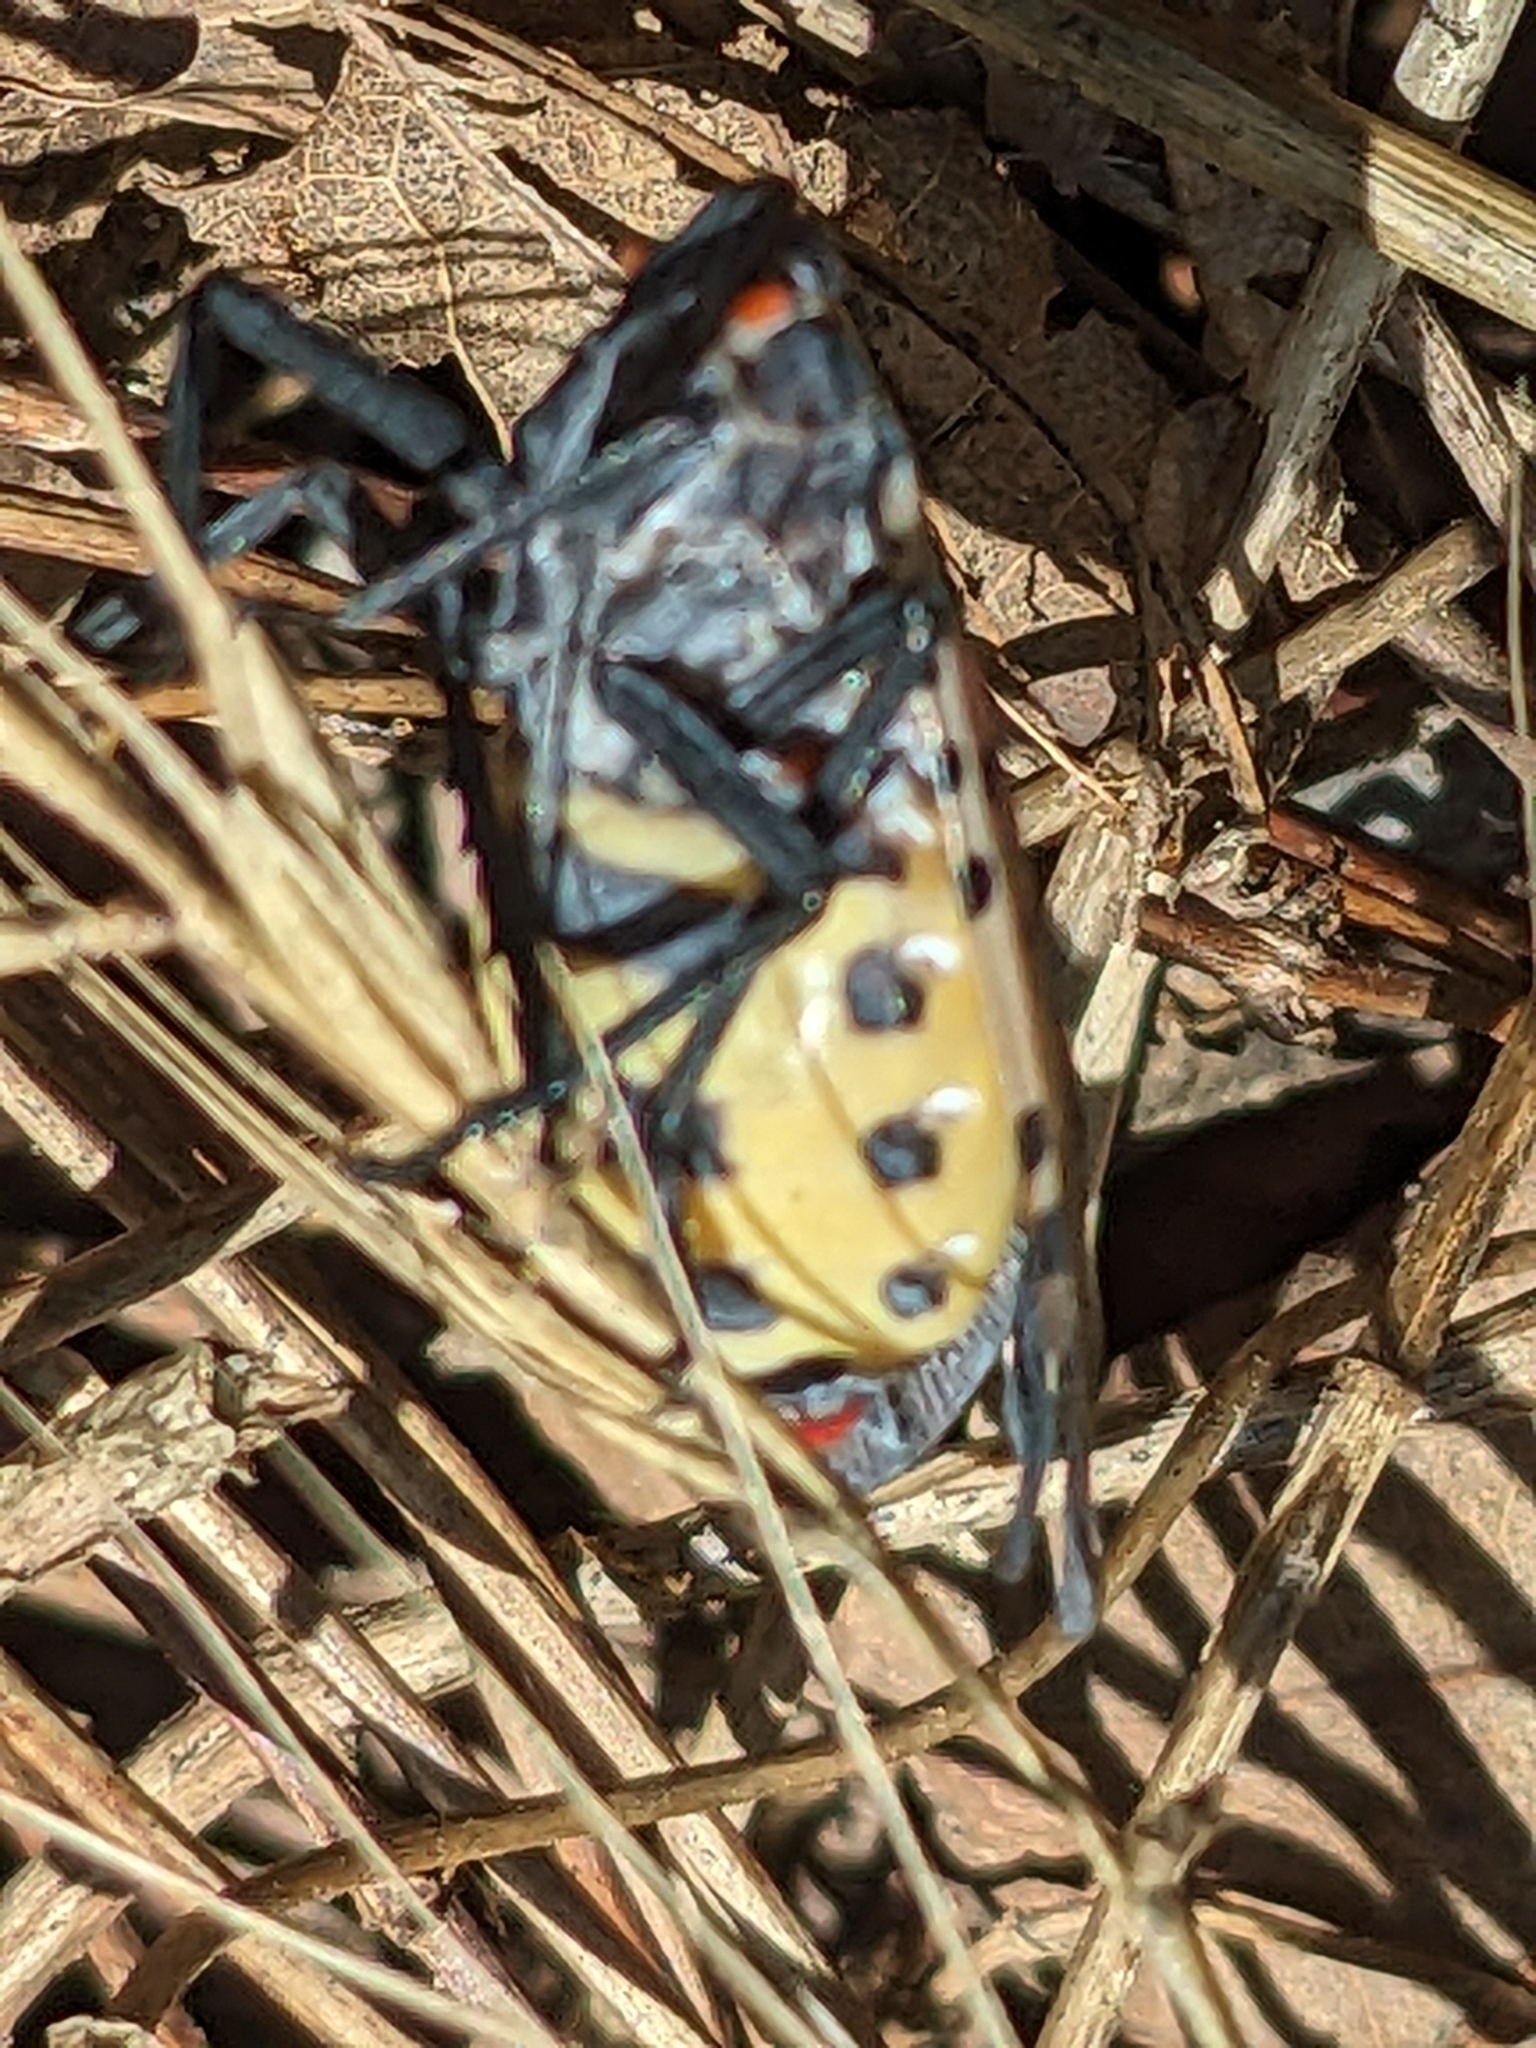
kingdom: Animalia
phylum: Arthropoda
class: Insecta
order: Hemiptera
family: Fulgoridae
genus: Lycorma
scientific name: Lycorma delicatula
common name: Spotted lanternfly
